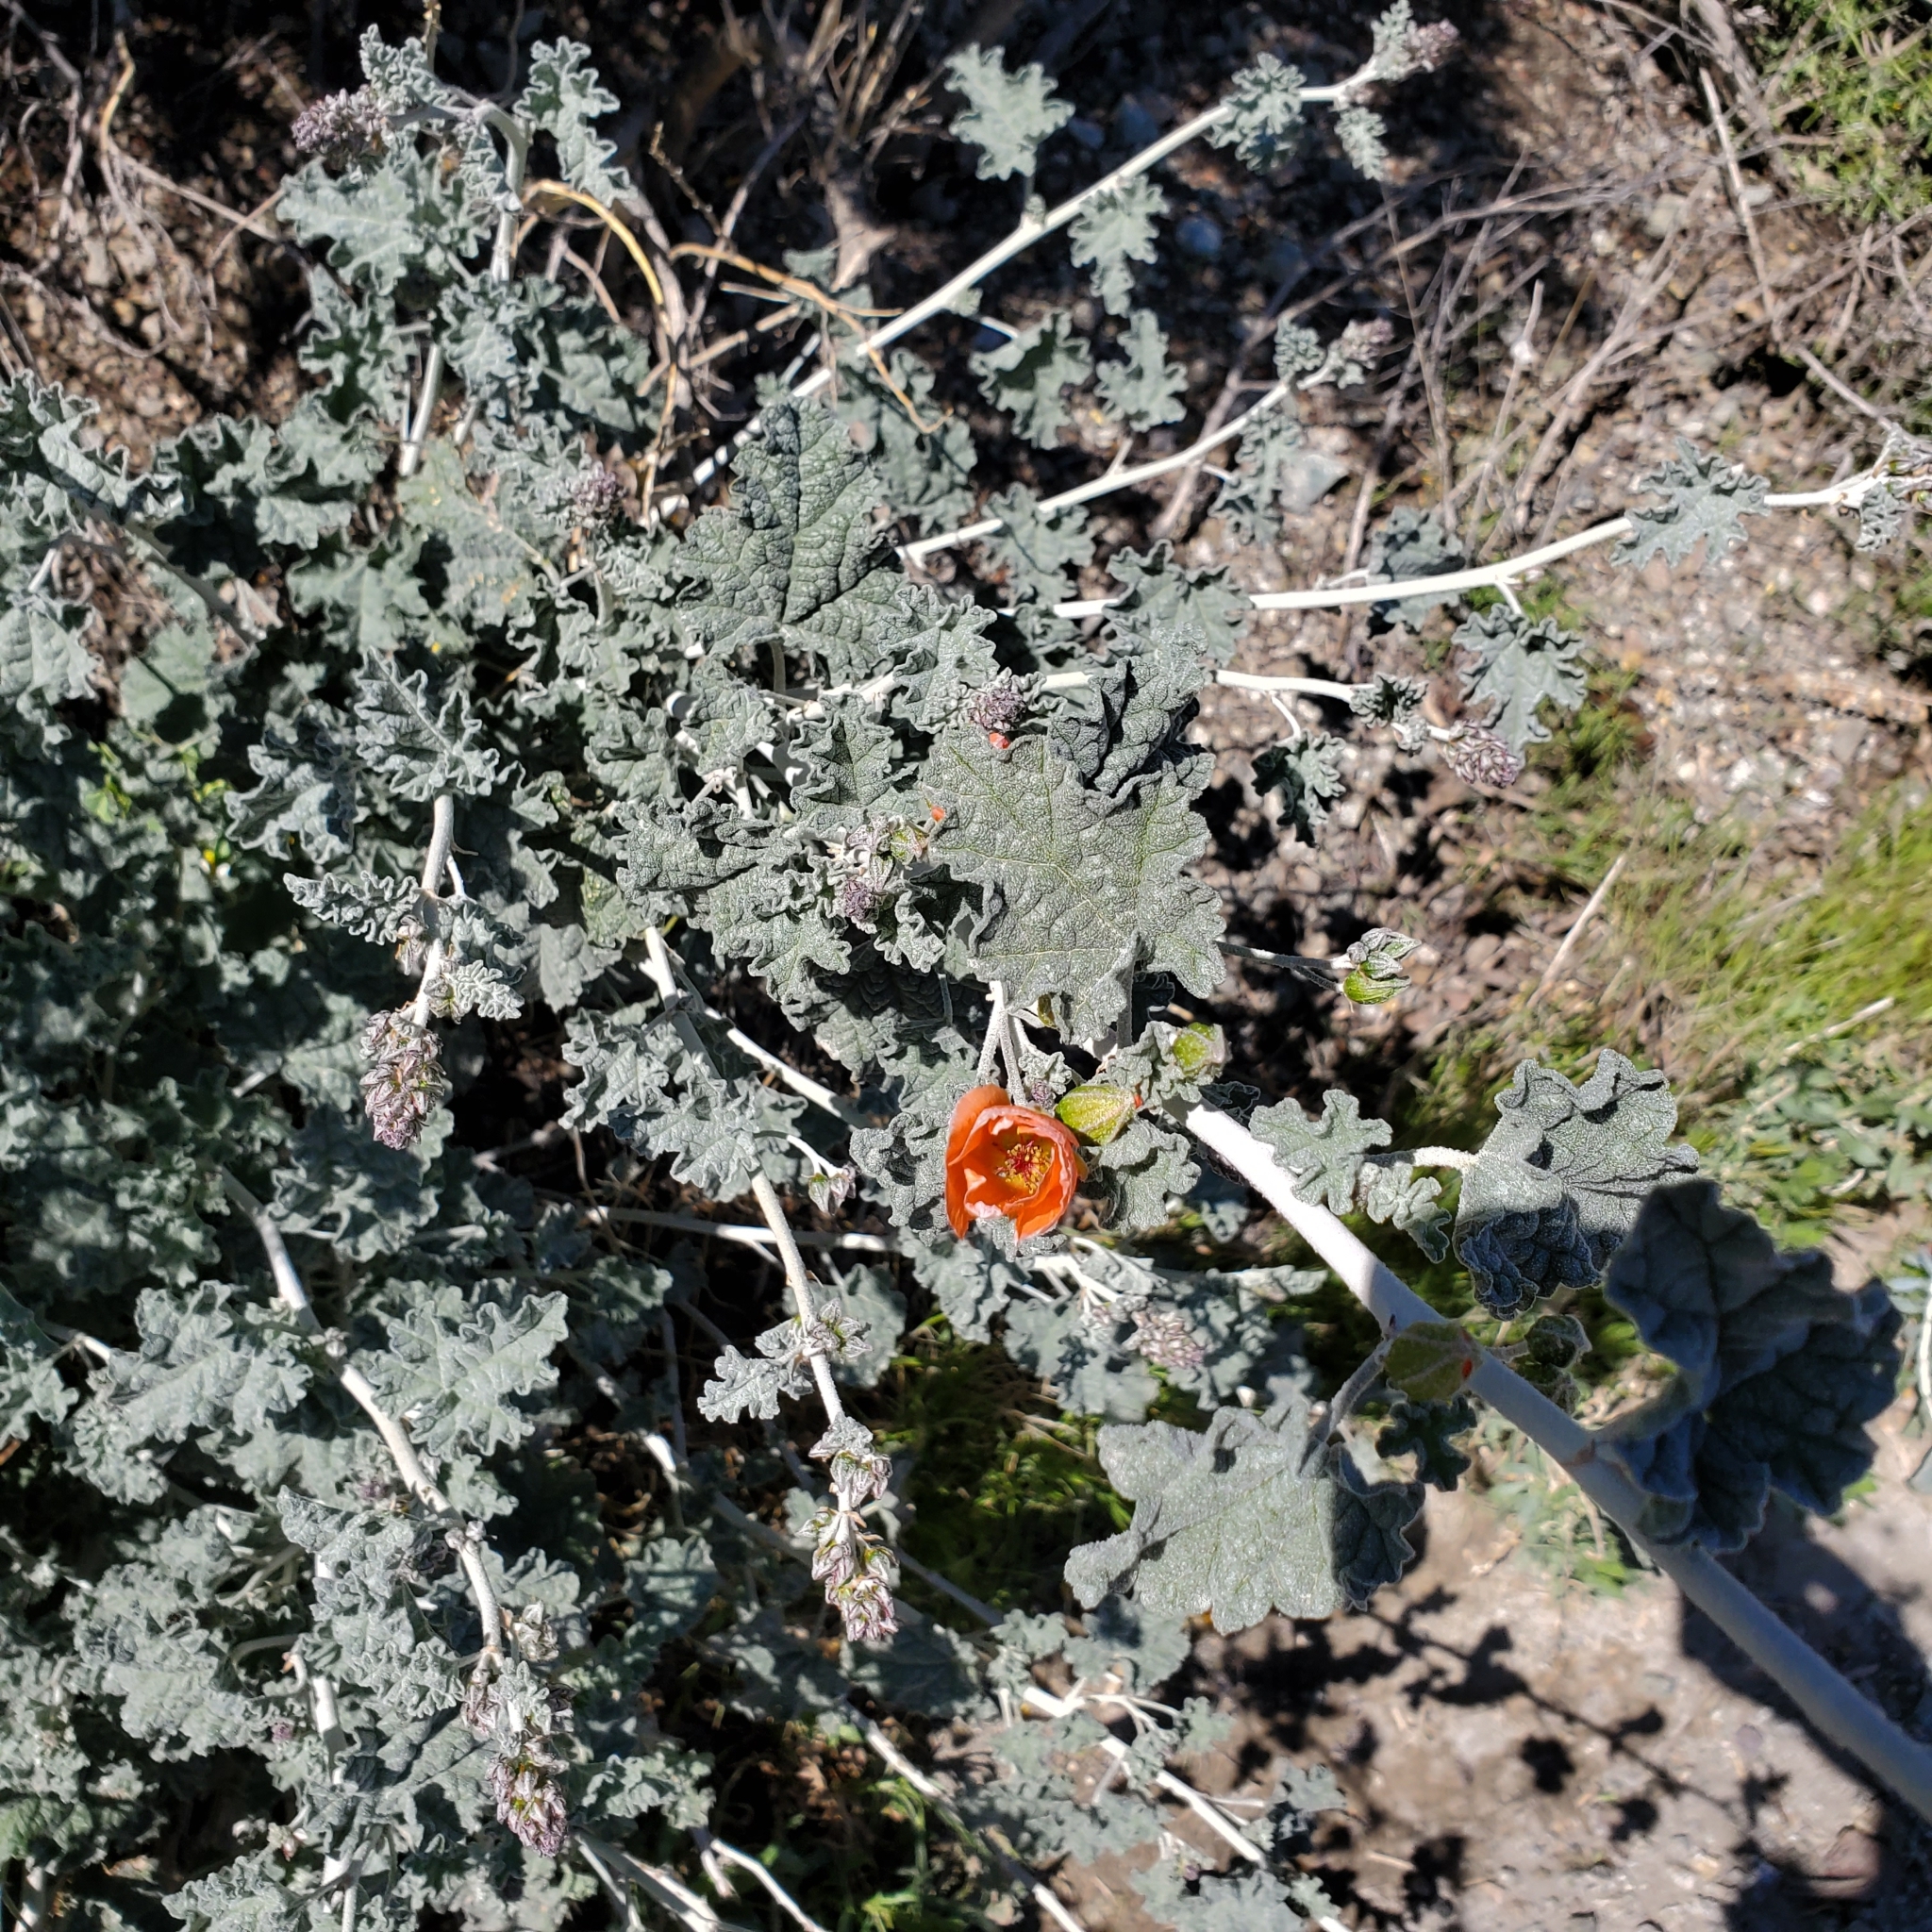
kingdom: Plantae
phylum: Tracheophyta
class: Magnoliopsida
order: Malvales
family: Malvaceae
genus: Sphaeralcea
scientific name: Sphaeralcea ambigua
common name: Apricot globe-mallow
